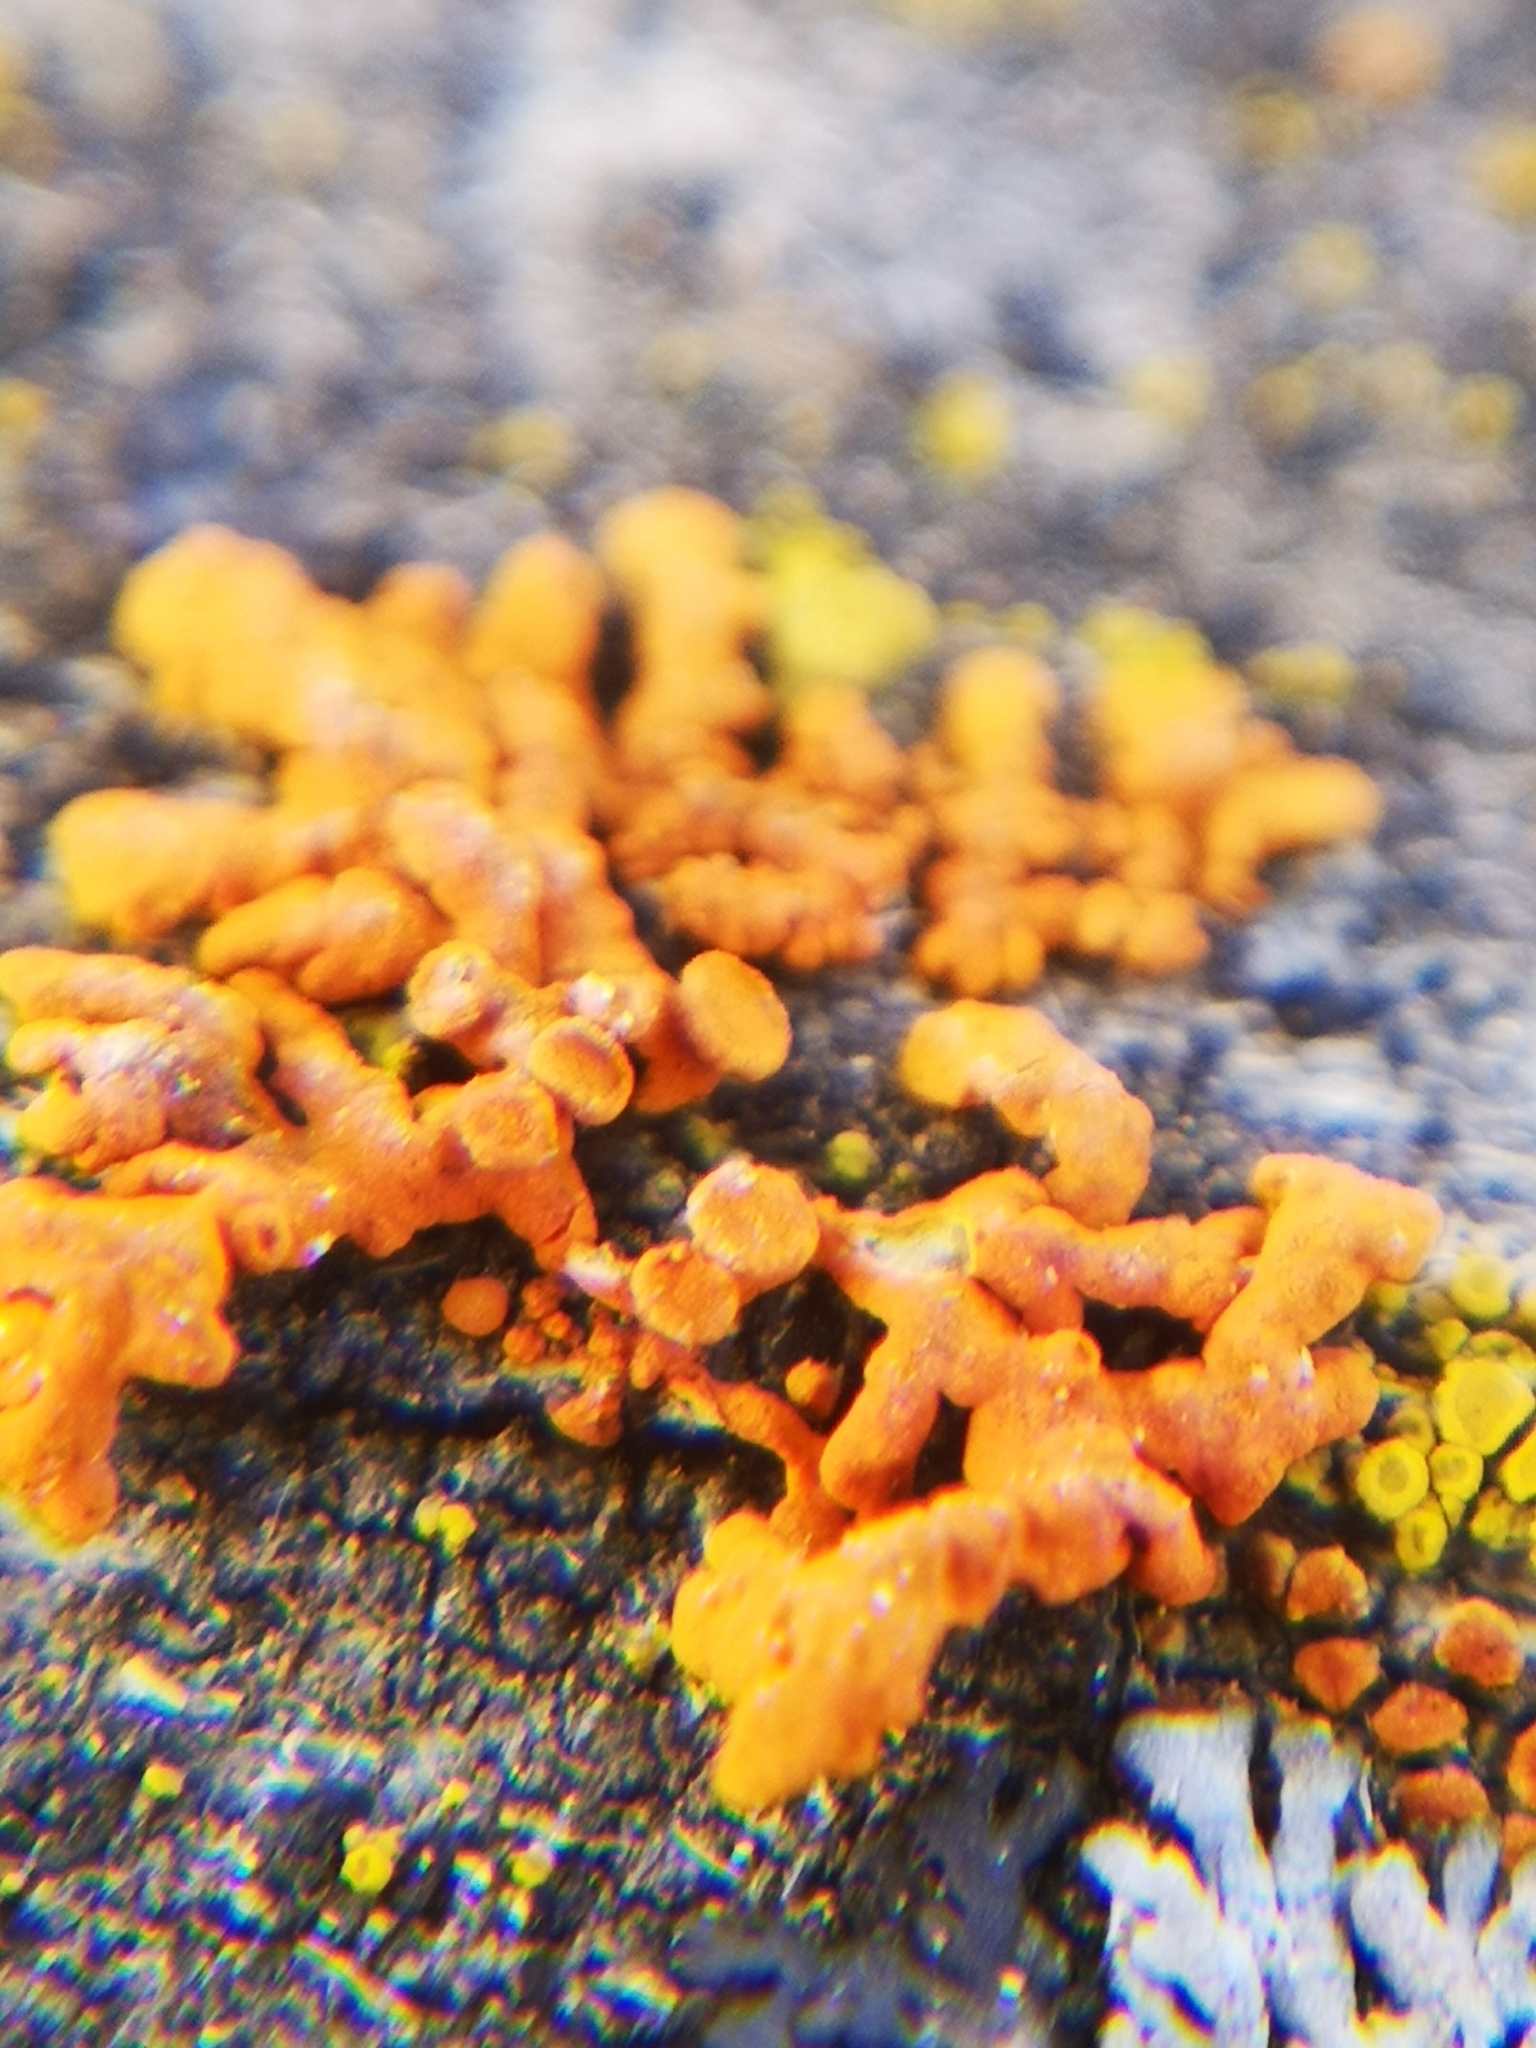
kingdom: Fungi
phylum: Ascomycota
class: Lecanoromycetes
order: Teloschistales
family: Teloschistaceae
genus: Xanthoria
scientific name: Xanthoria elegans
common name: Elegant sunburst lichen
